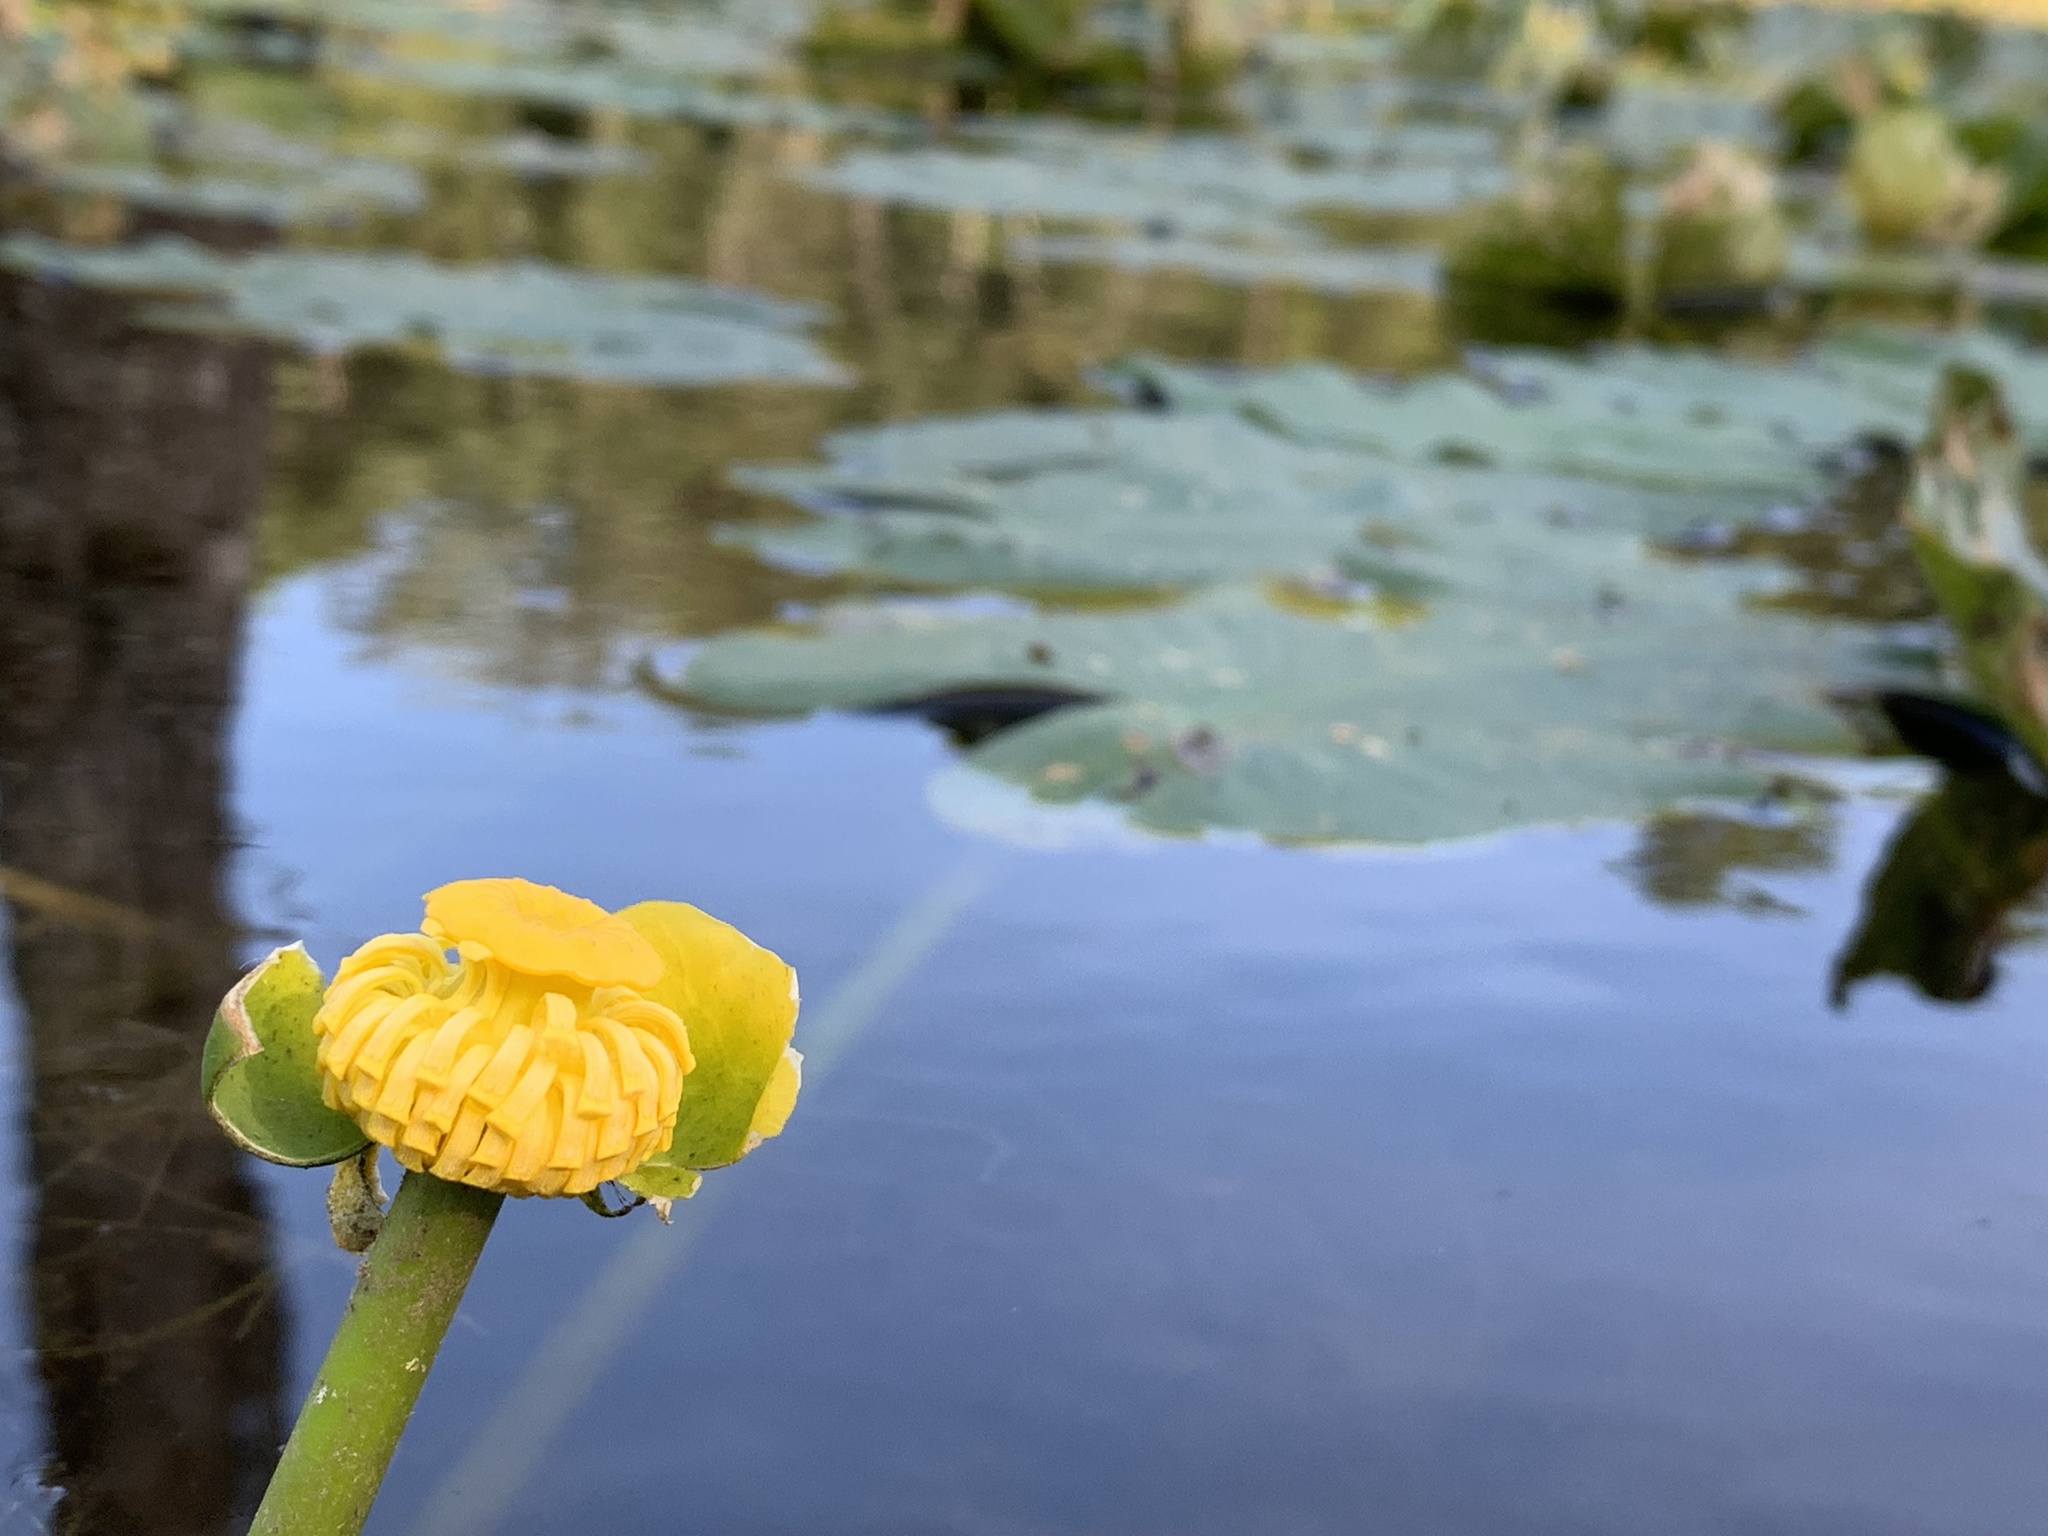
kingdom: Plantae
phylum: Tracheophyta
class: Magnoliopsida
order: Nymphaeales
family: Nymphaeaceae
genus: Nuphar
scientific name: Nuphar sagittifolia
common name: Cape fear spatterdock
